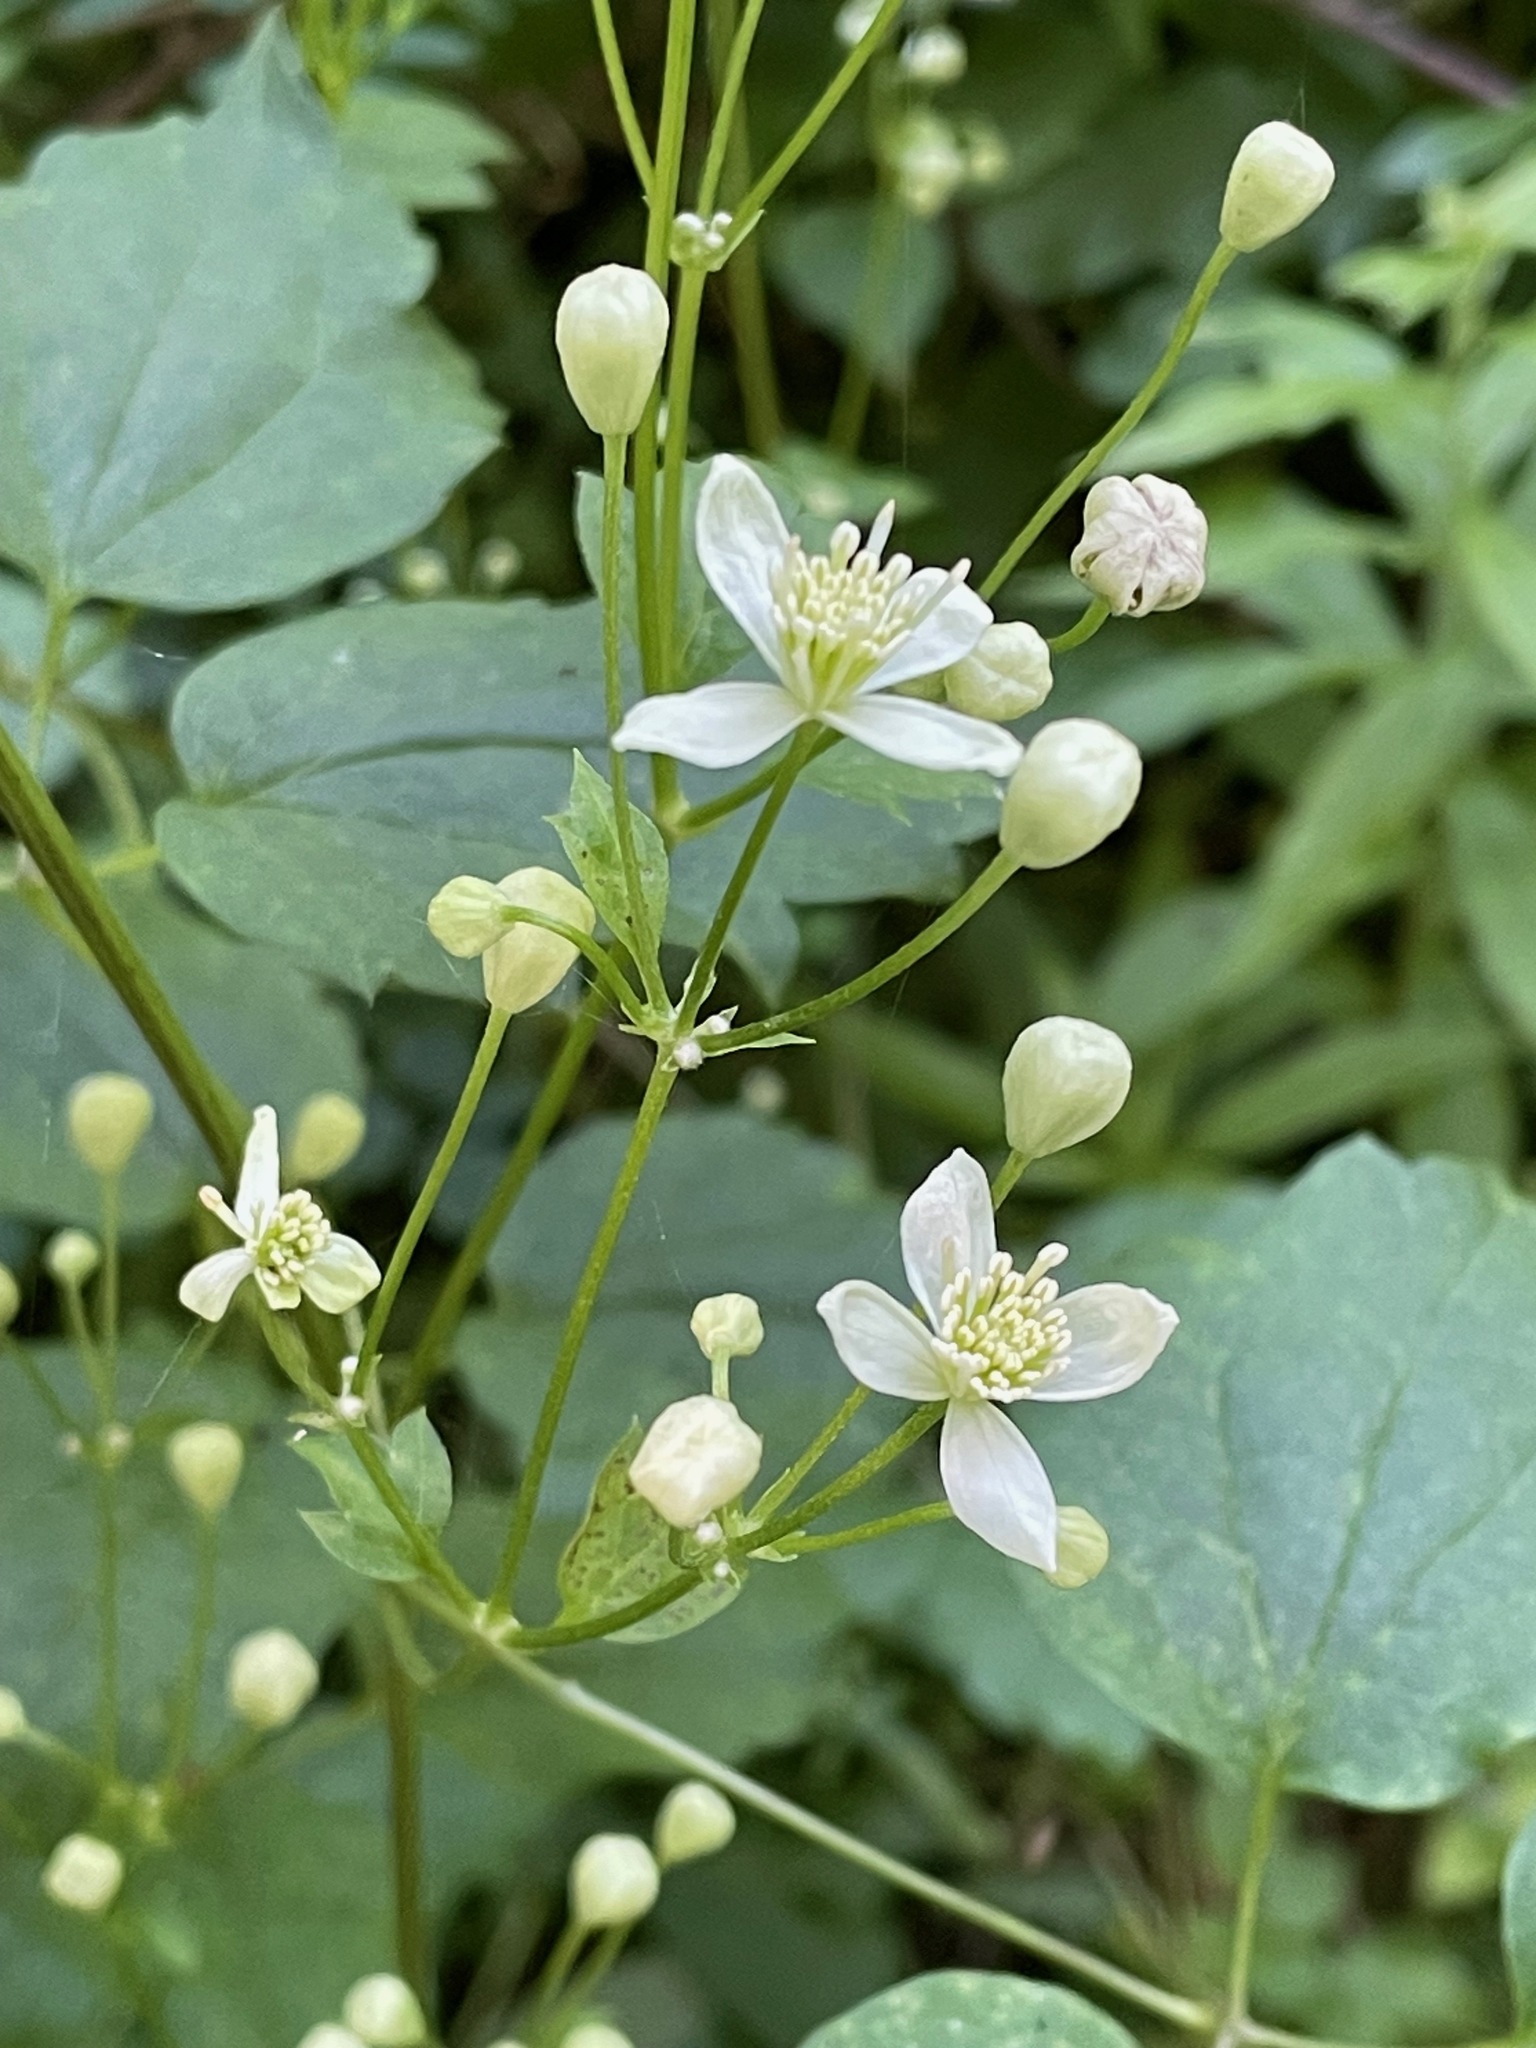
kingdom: Plantae
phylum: Tracheophyta
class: Magnoliopsida
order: Ranunculales
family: Ranunculaceae
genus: Clematis
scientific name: Clematis virginiana
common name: Virgin's-bower
